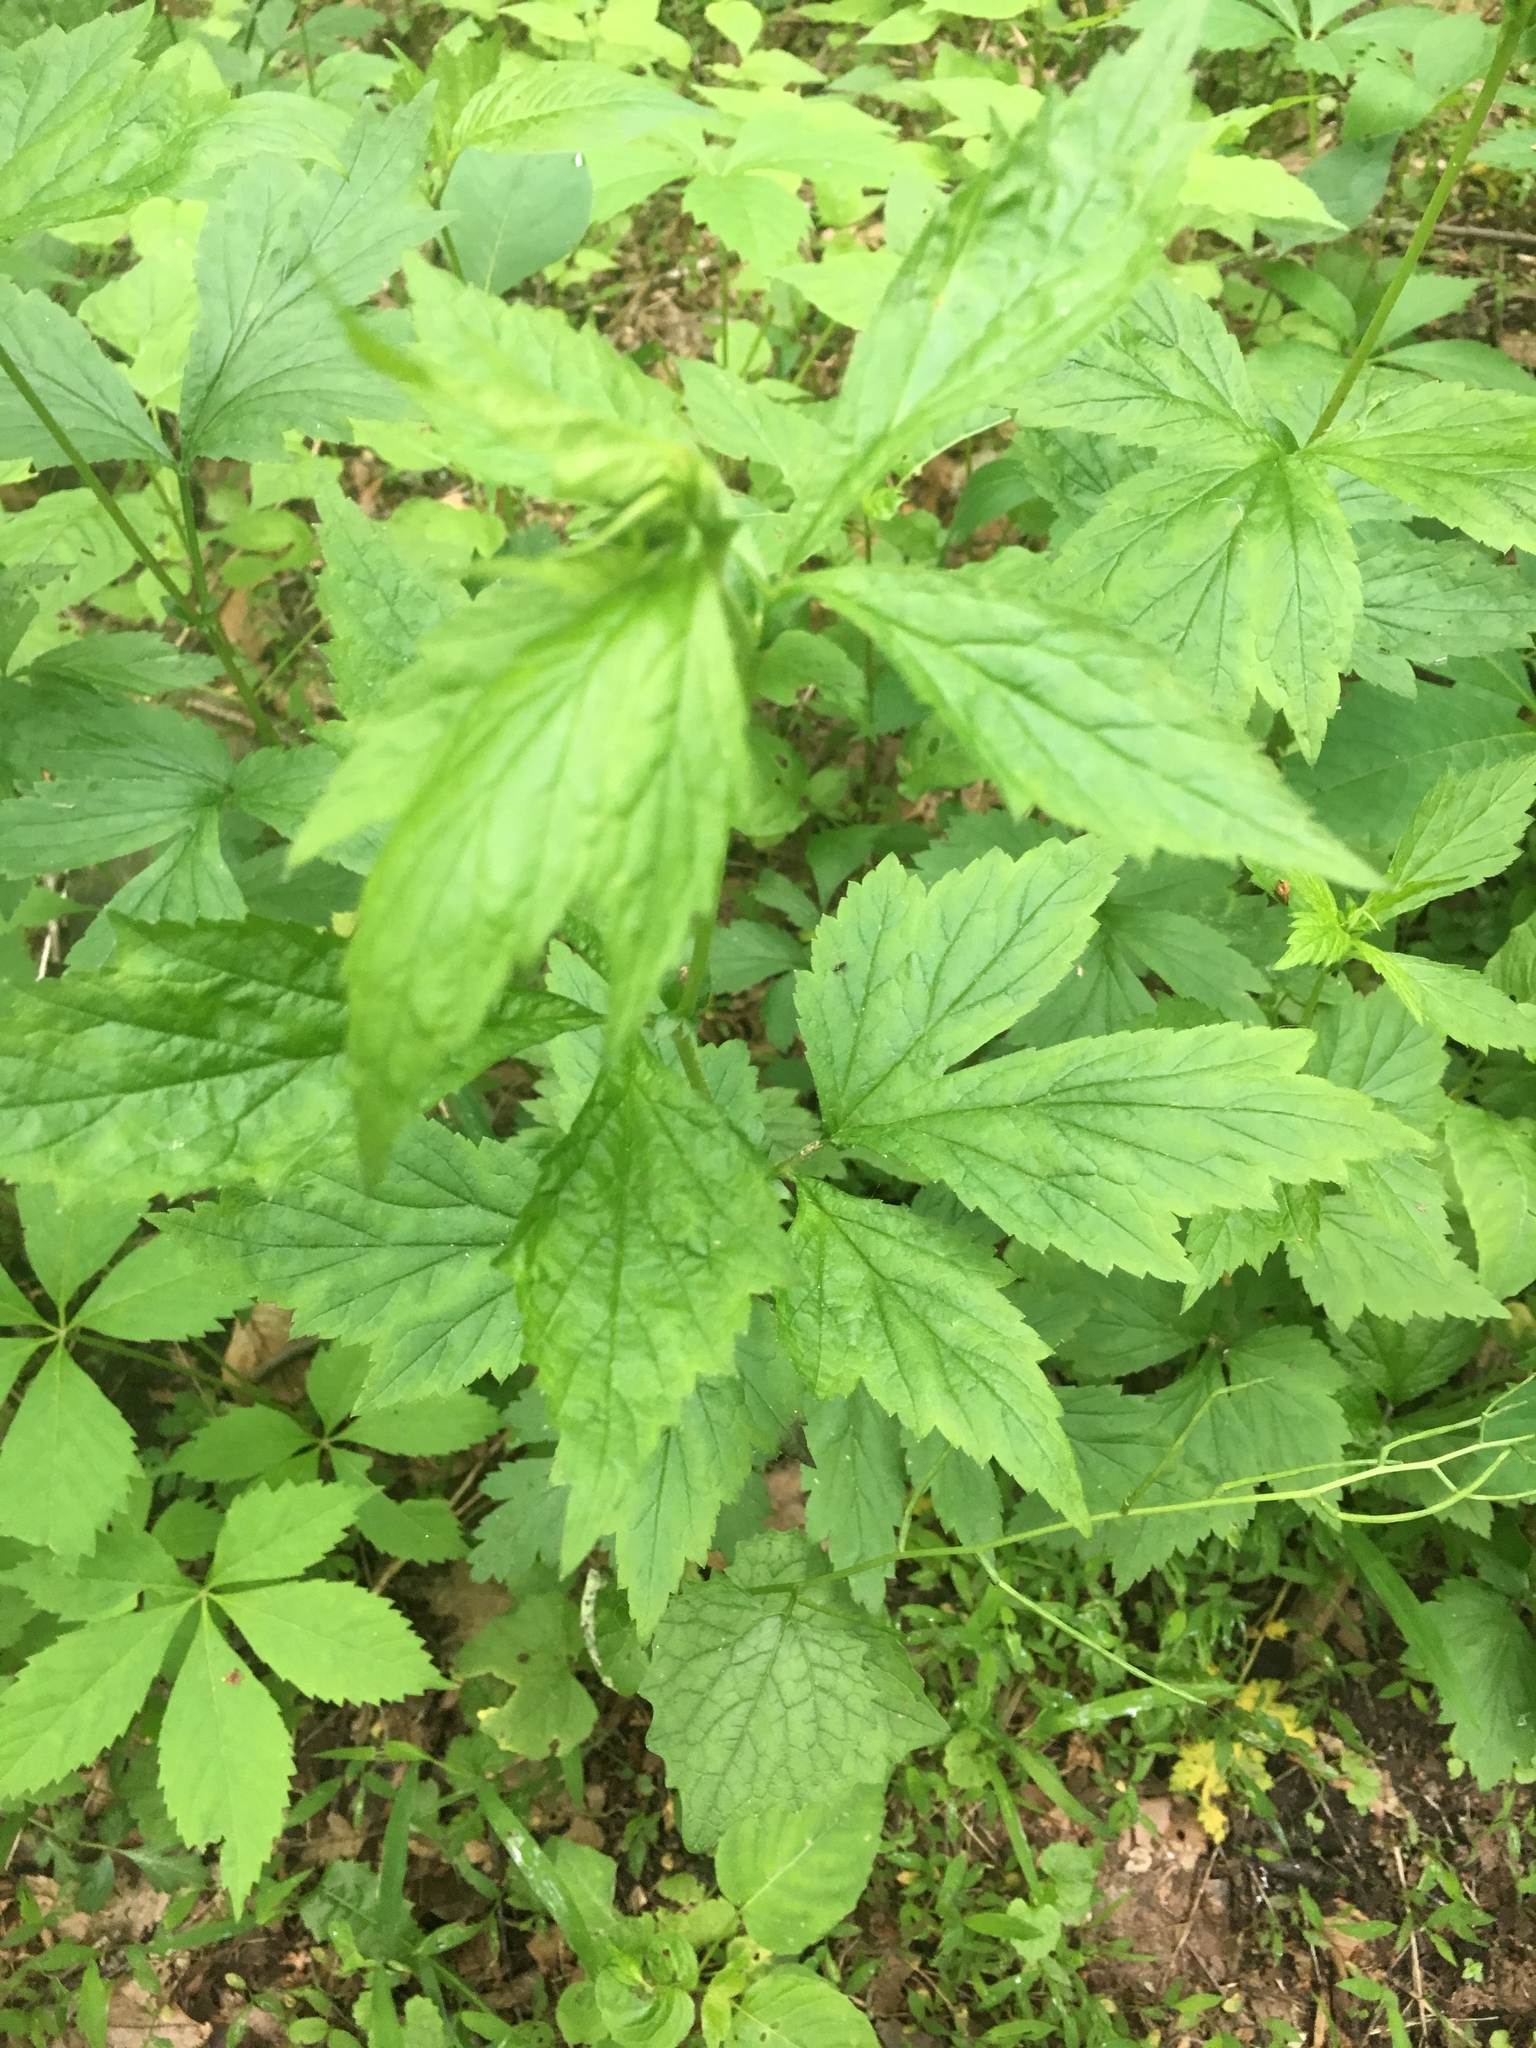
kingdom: Plantae
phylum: Tracheophyta
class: Magnoliopsida
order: Geraniales
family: Geraniaceae
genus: Geranium
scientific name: Geranium maculatum
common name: Spotted geranium
